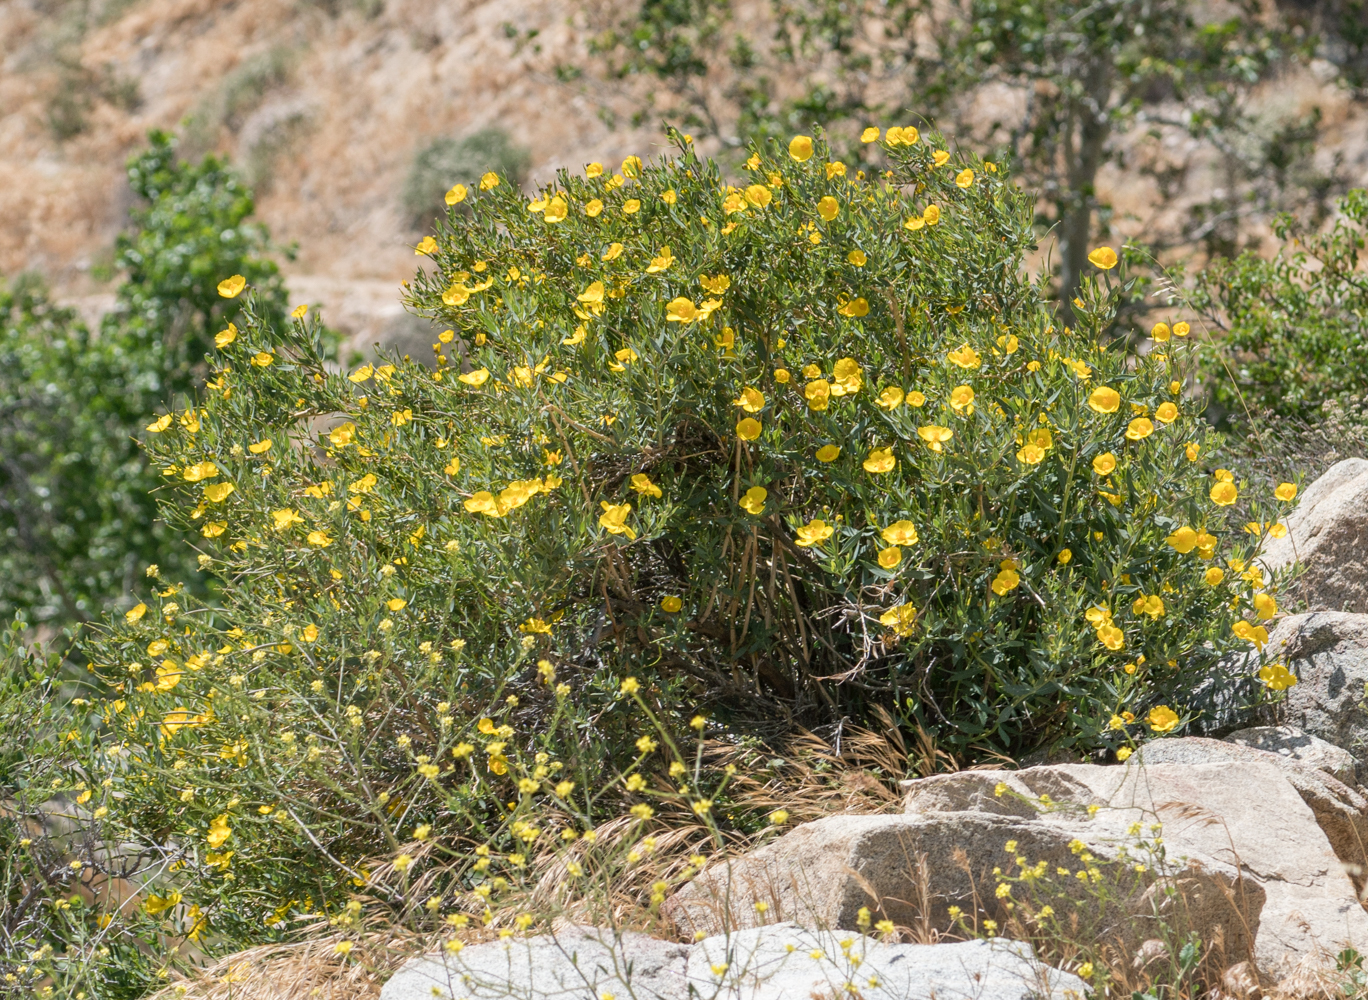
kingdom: Plantae
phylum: Tracheophyta
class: Magnoliopsida
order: Ranunculales
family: Papaveraceae
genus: Dendromecon
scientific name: Dendromecon rigida
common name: Tree poppy
